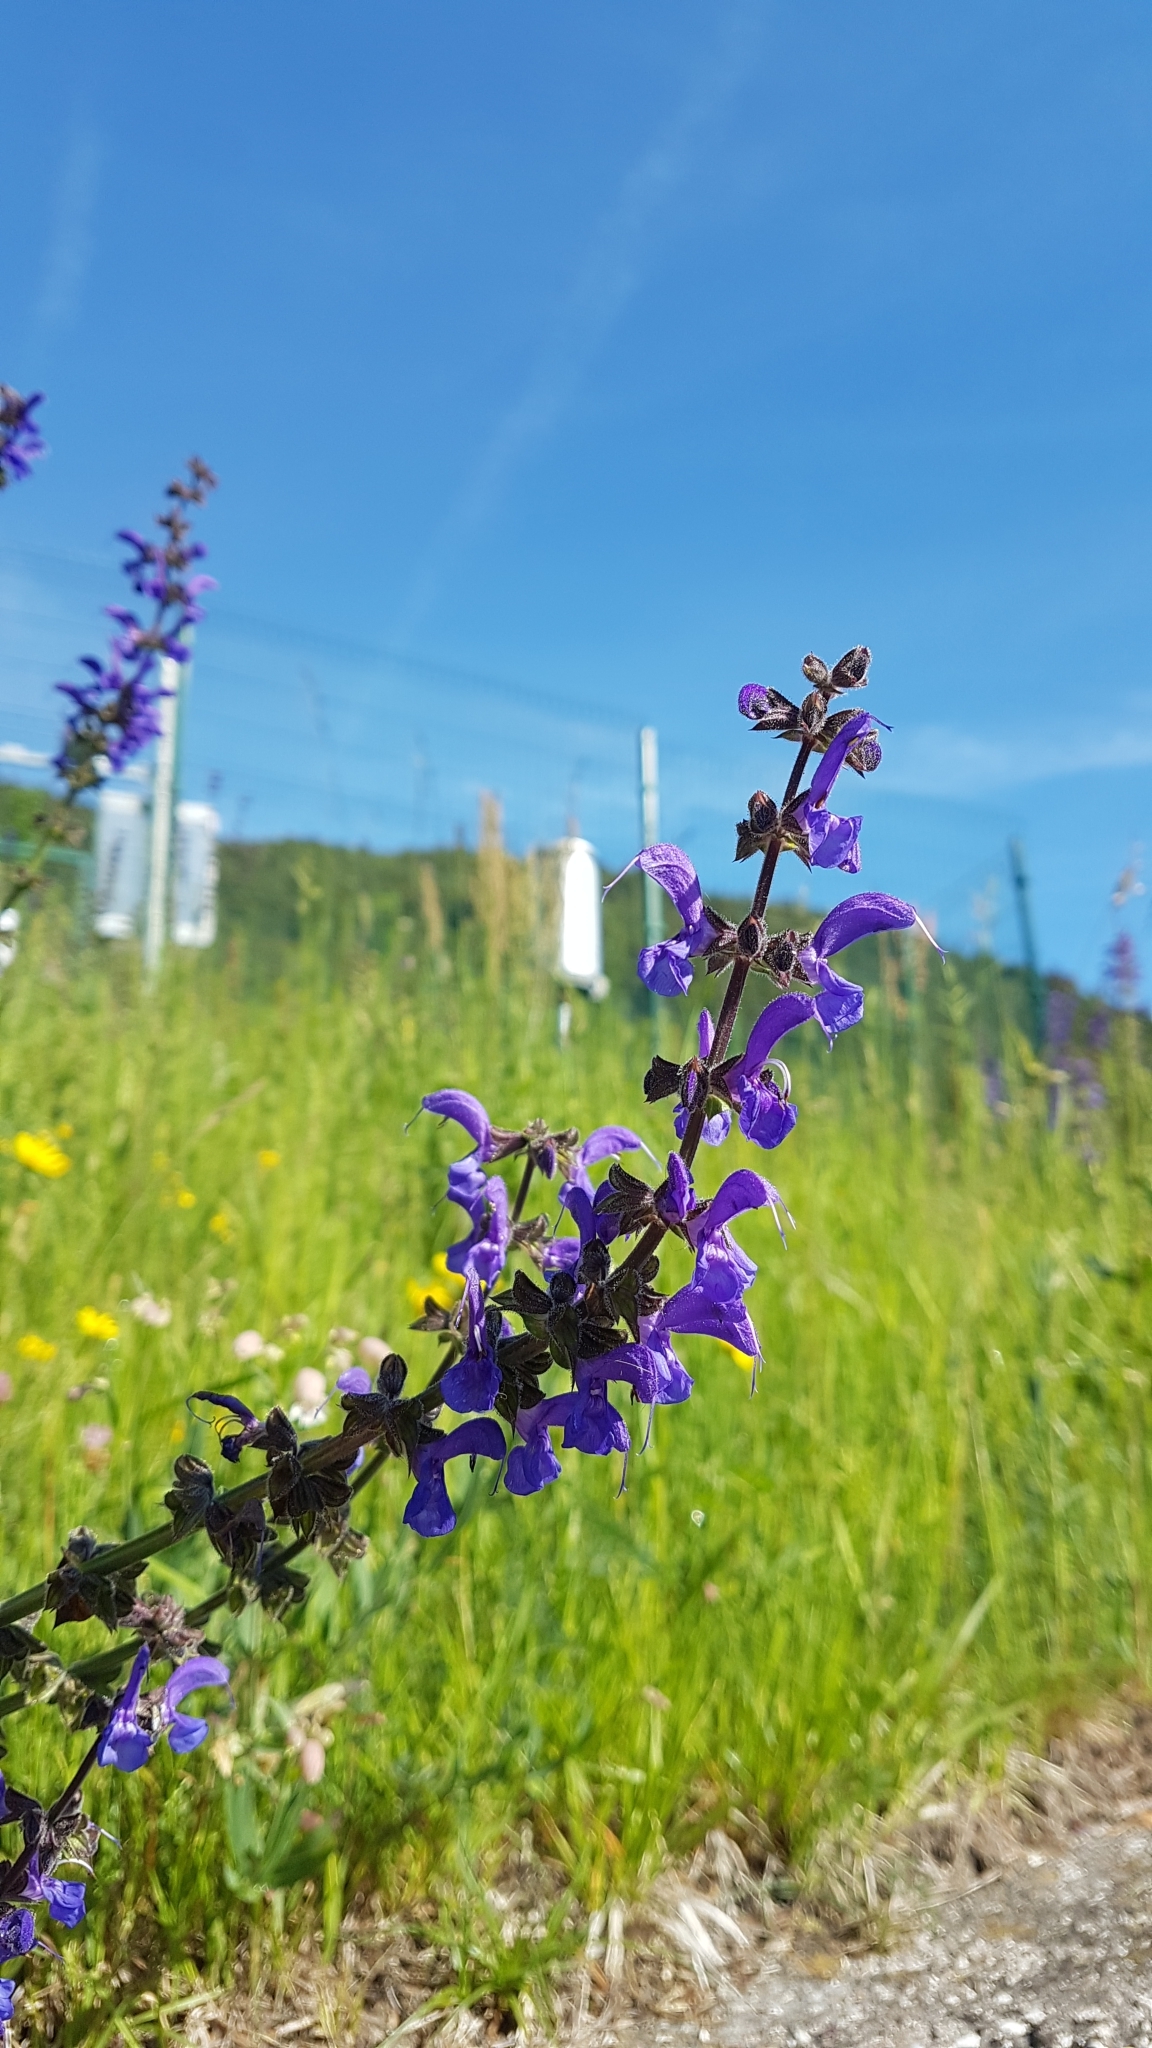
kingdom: Plantae
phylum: Tracheophyta
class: Magnoliopsida
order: Lamiales
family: Lamiaceae
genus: Salvia
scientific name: Salvia pratensis
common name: Meadow sage
